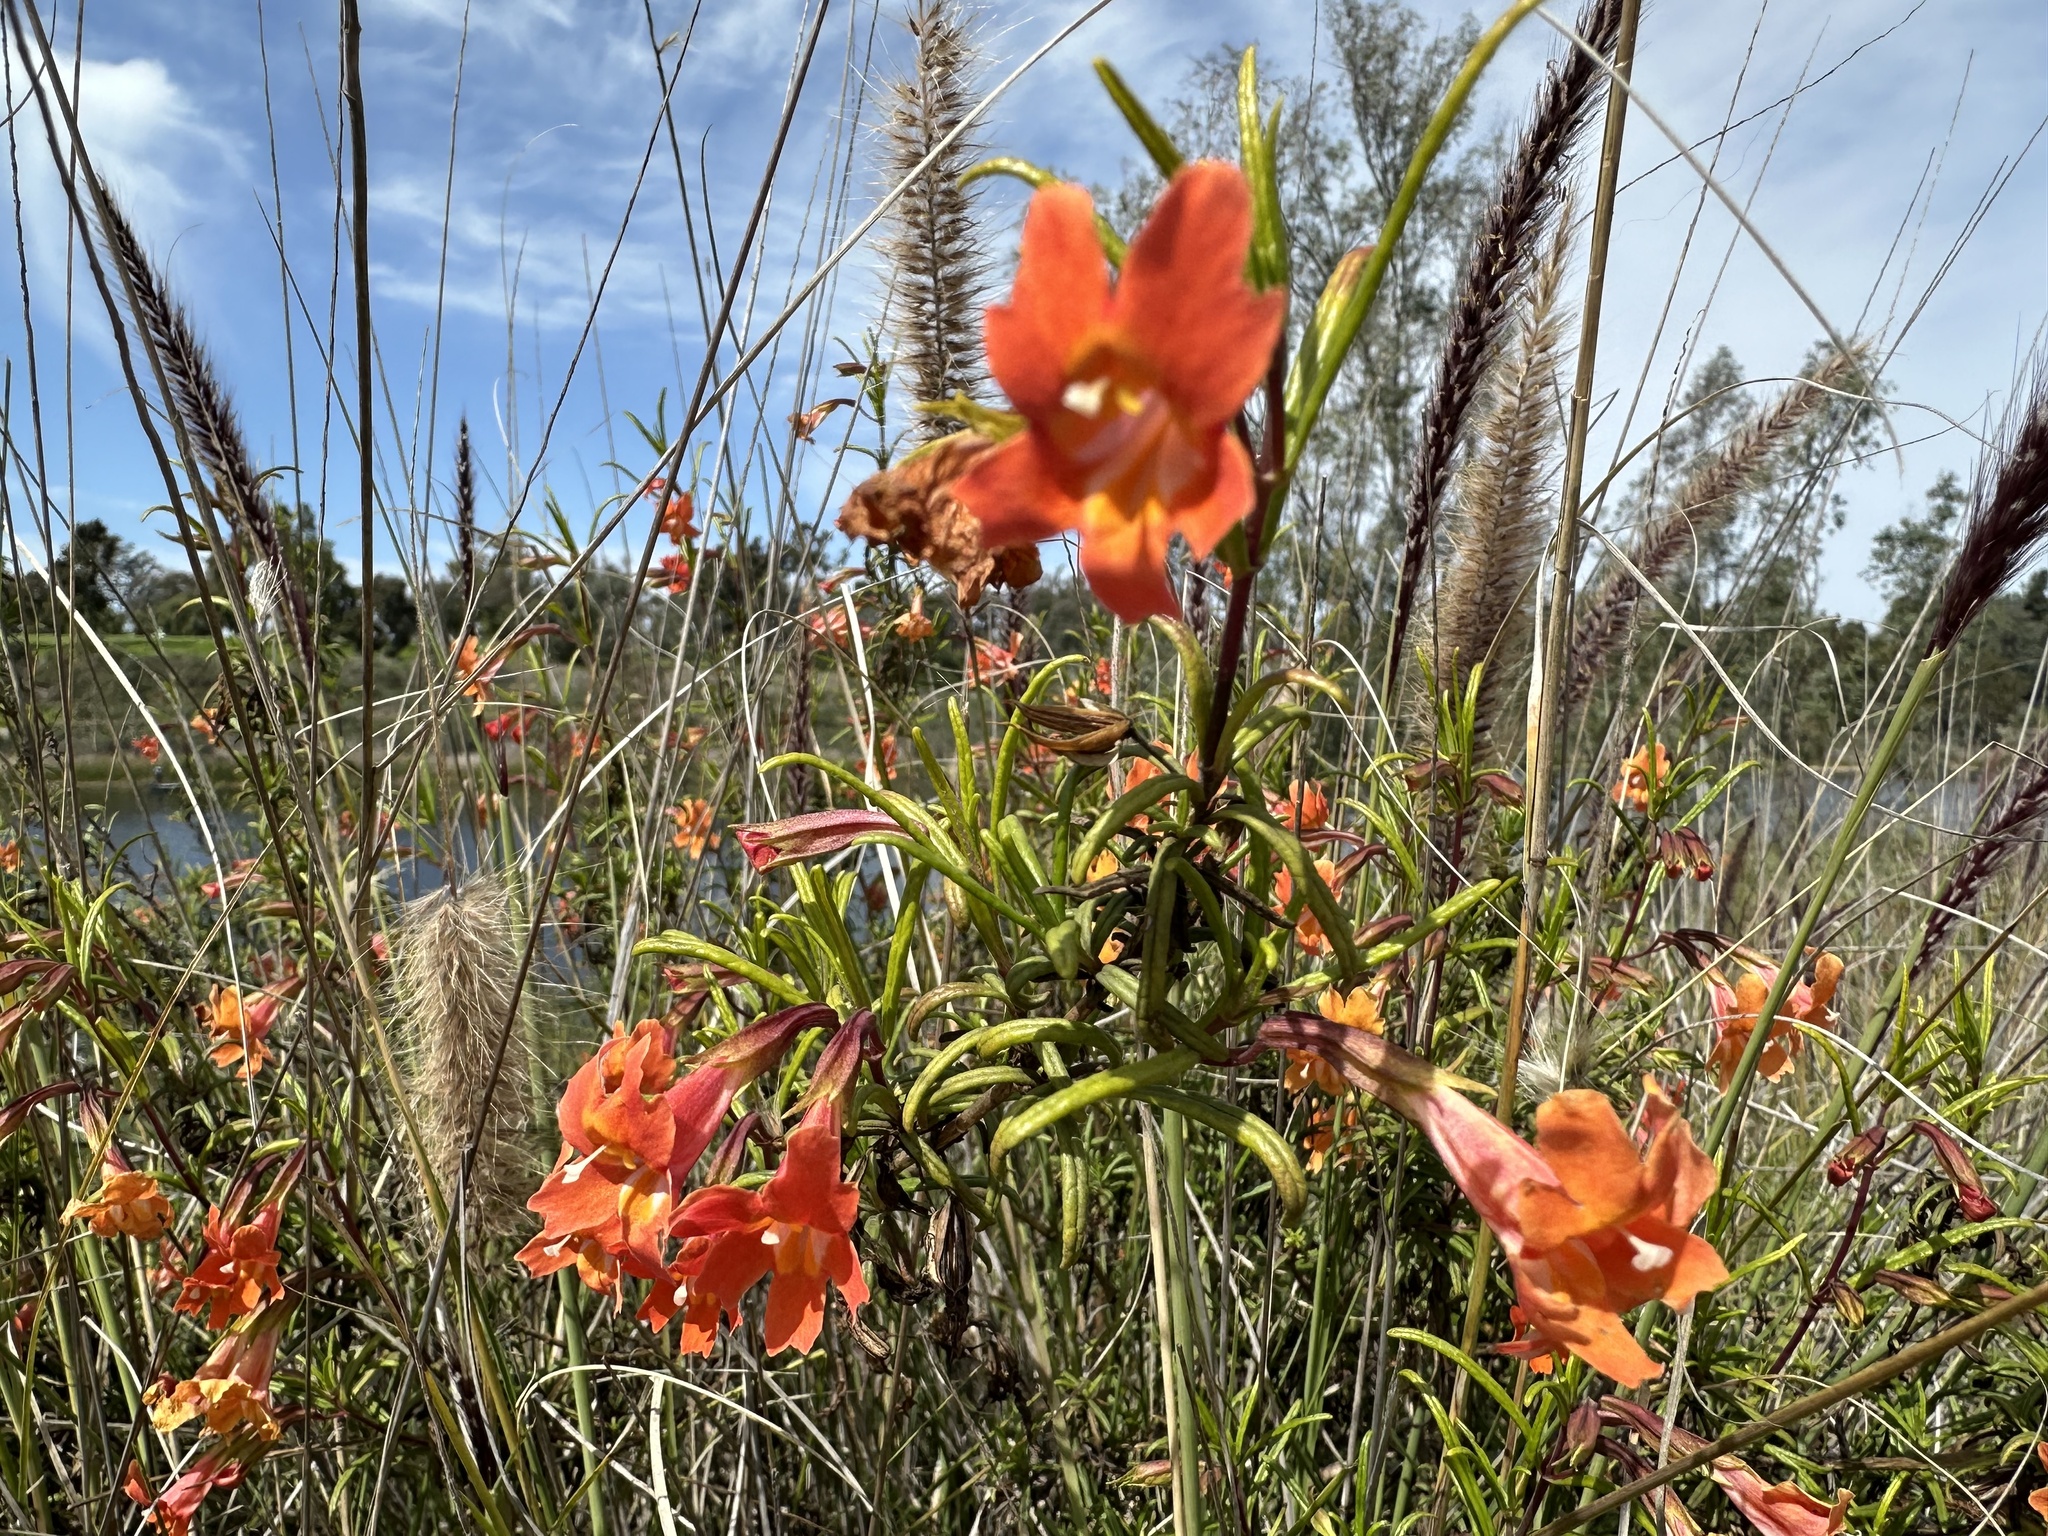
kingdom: Plantae
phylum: Tracheophyta
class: Magnoliopsida
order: Lamiales
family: Phrymaceae
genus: Diplacus
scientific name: Diplacus puniceus
